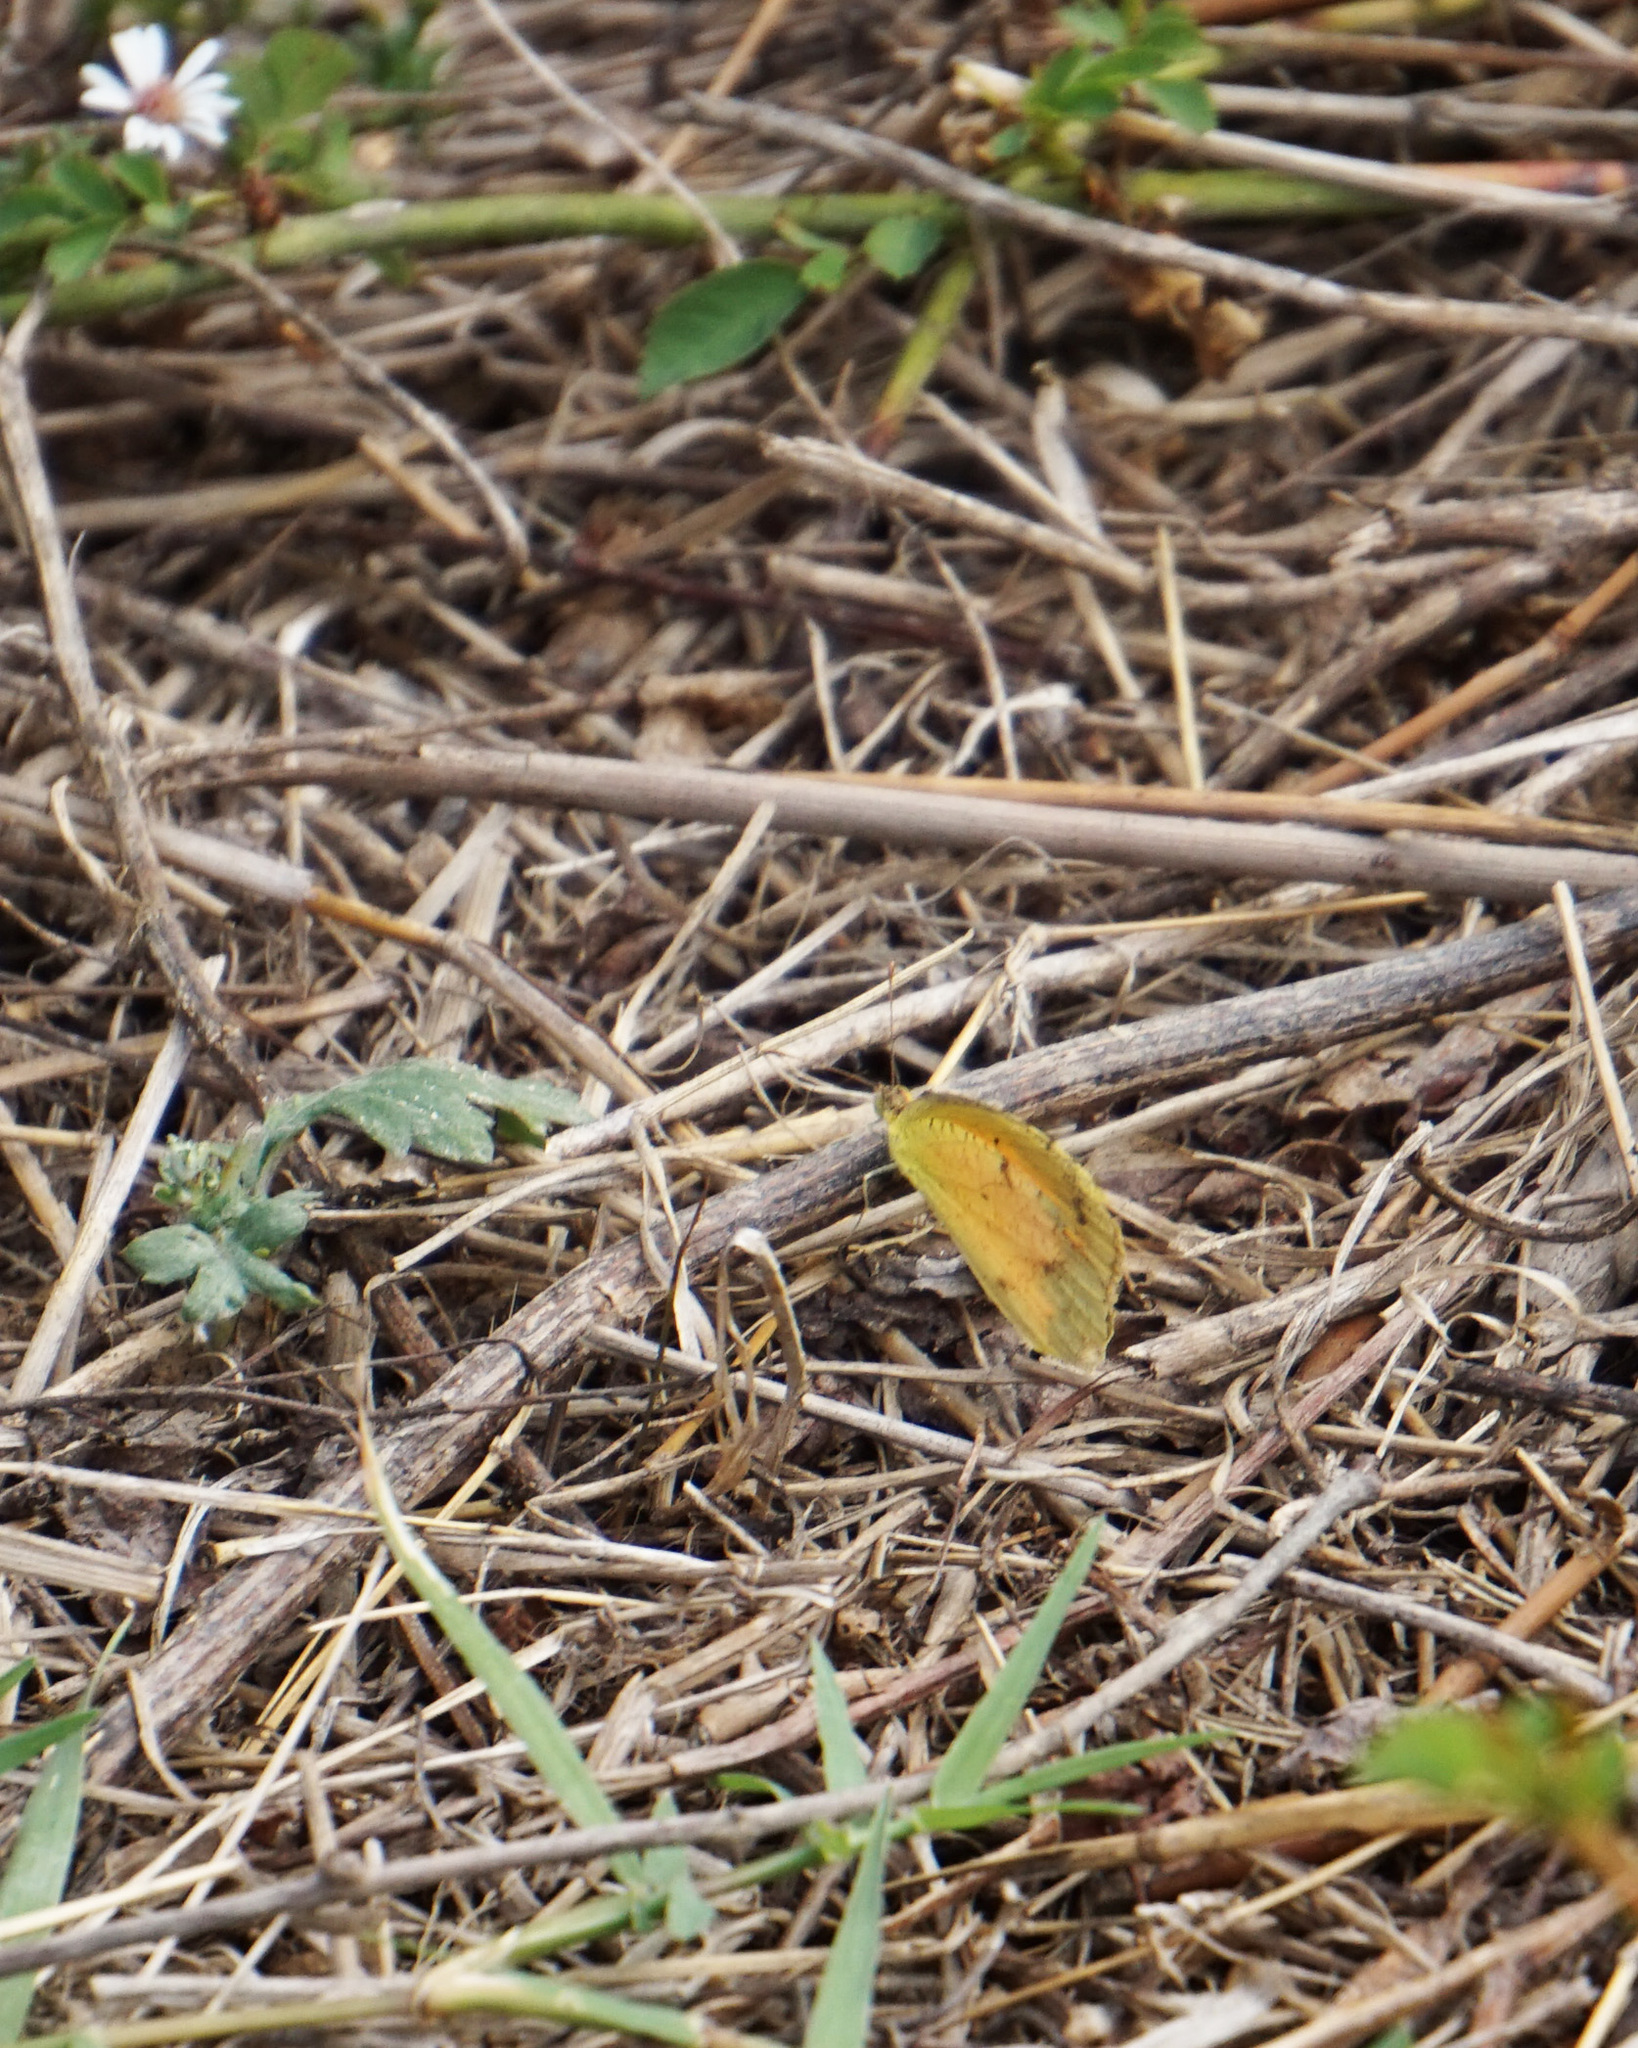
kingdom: Animalia
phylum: Arthropoda
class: Insecta
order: Lepidoptera
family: Pieridae
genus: Abaeis
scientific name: Abaeis nicippe
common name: Sleepy orange
